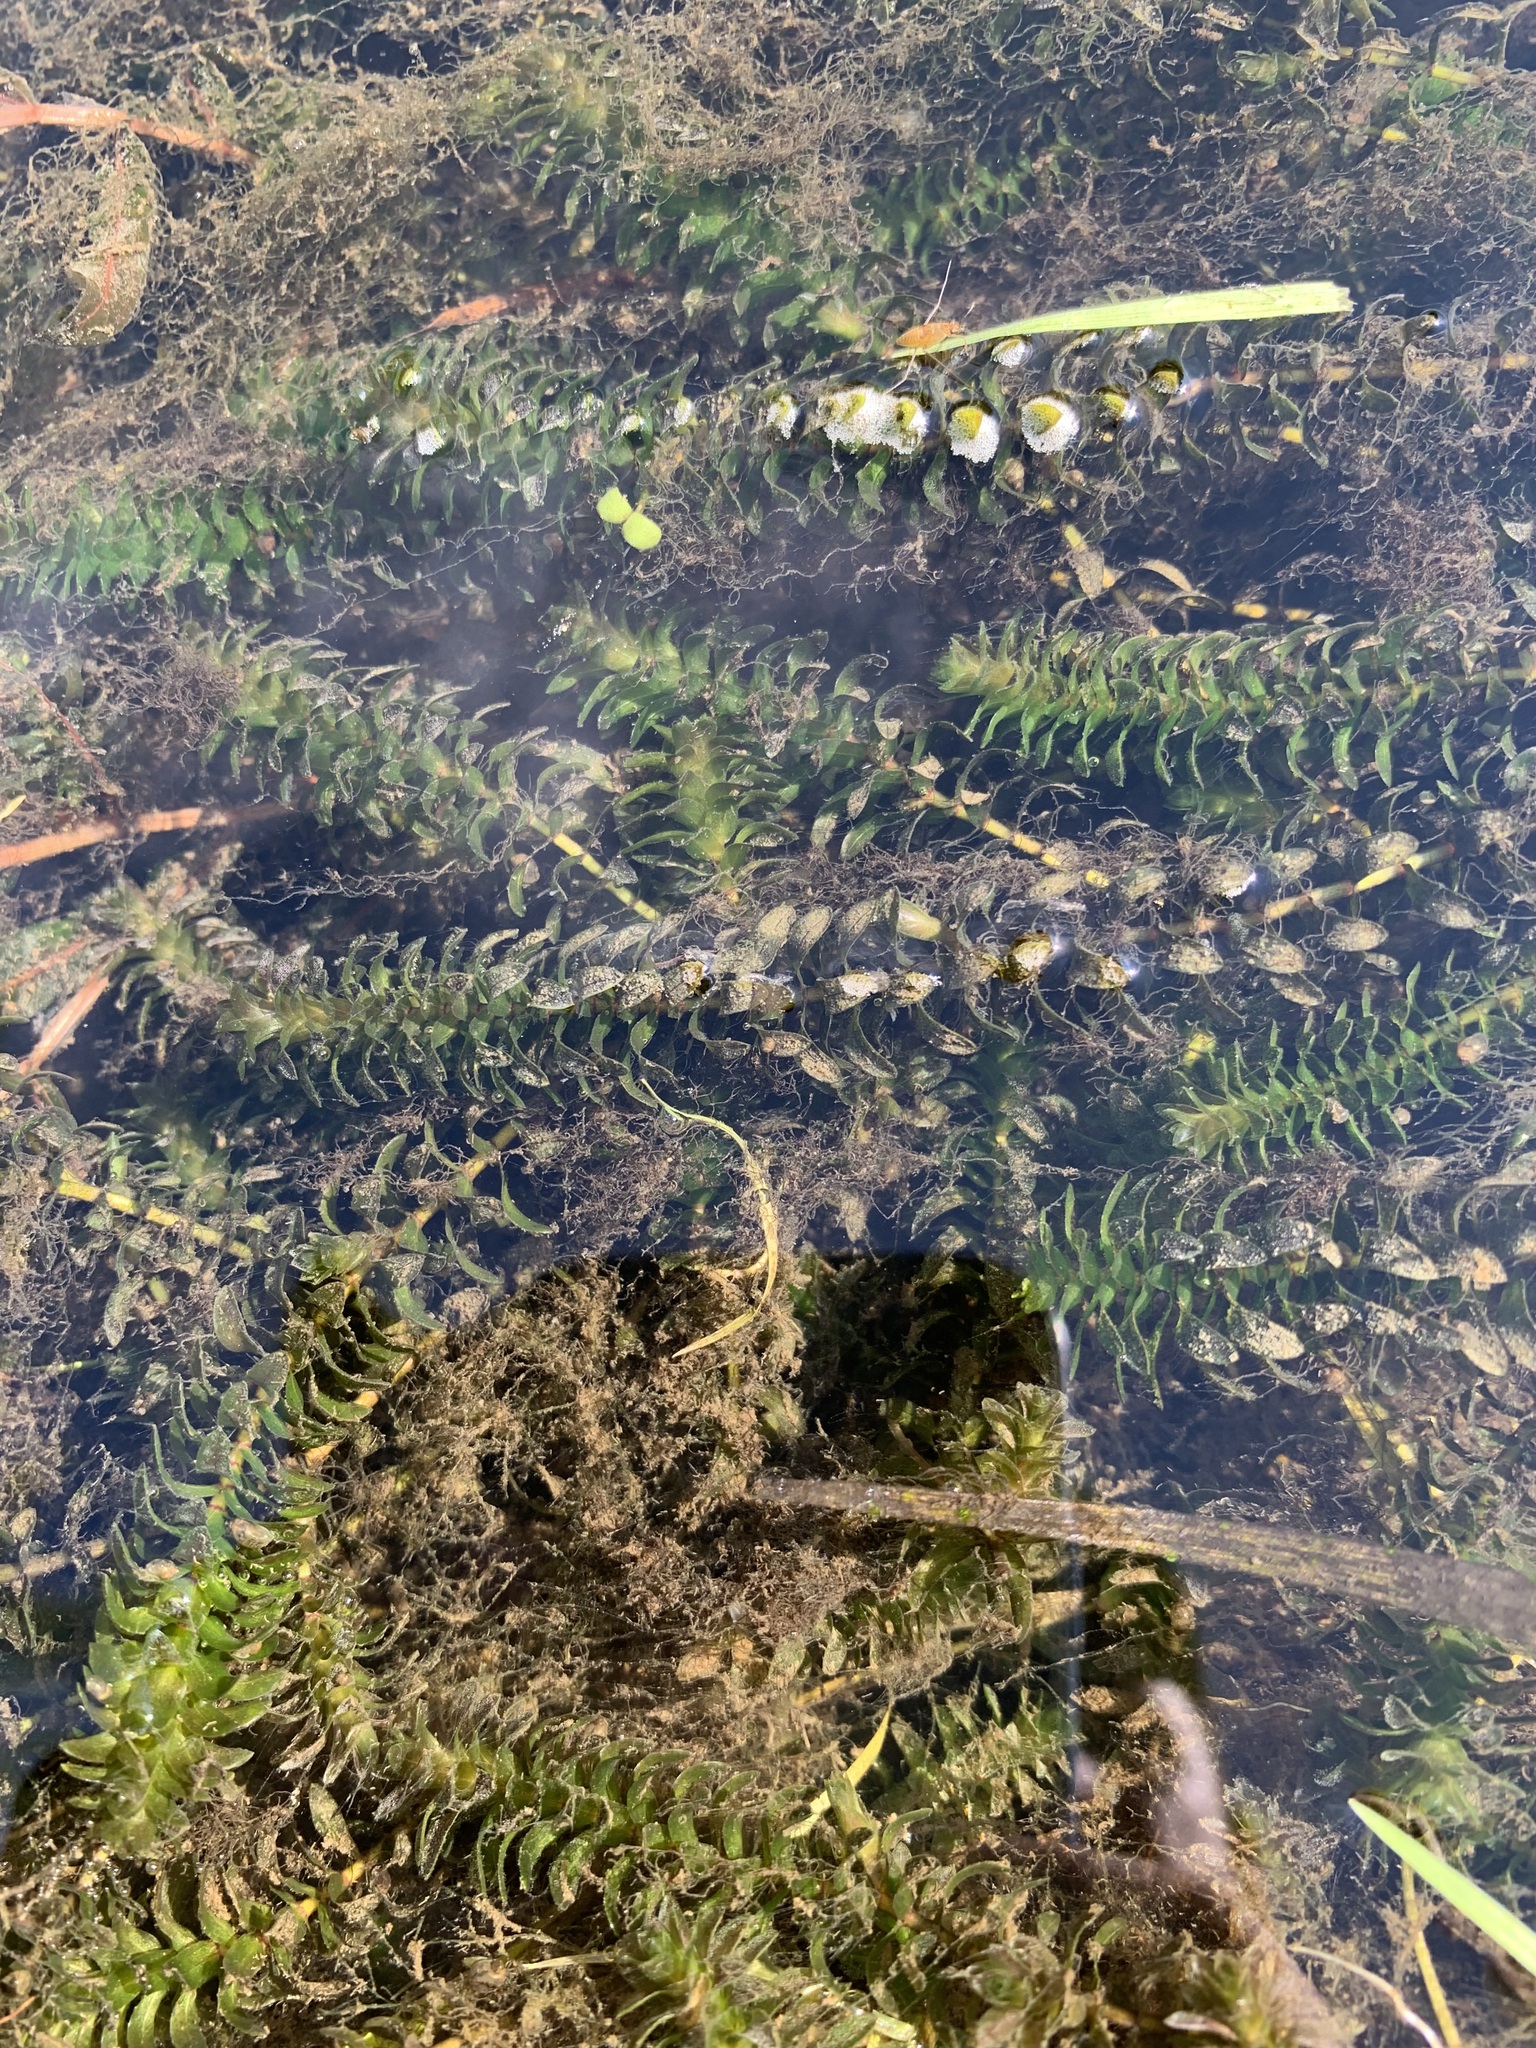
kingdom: Plantae
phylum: Tracheophyta
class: Liliopsida
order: Alismatales
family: Hydrocharitaceae
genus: Elodea
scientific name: Elodea canadensis
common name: Canadian waterweed
